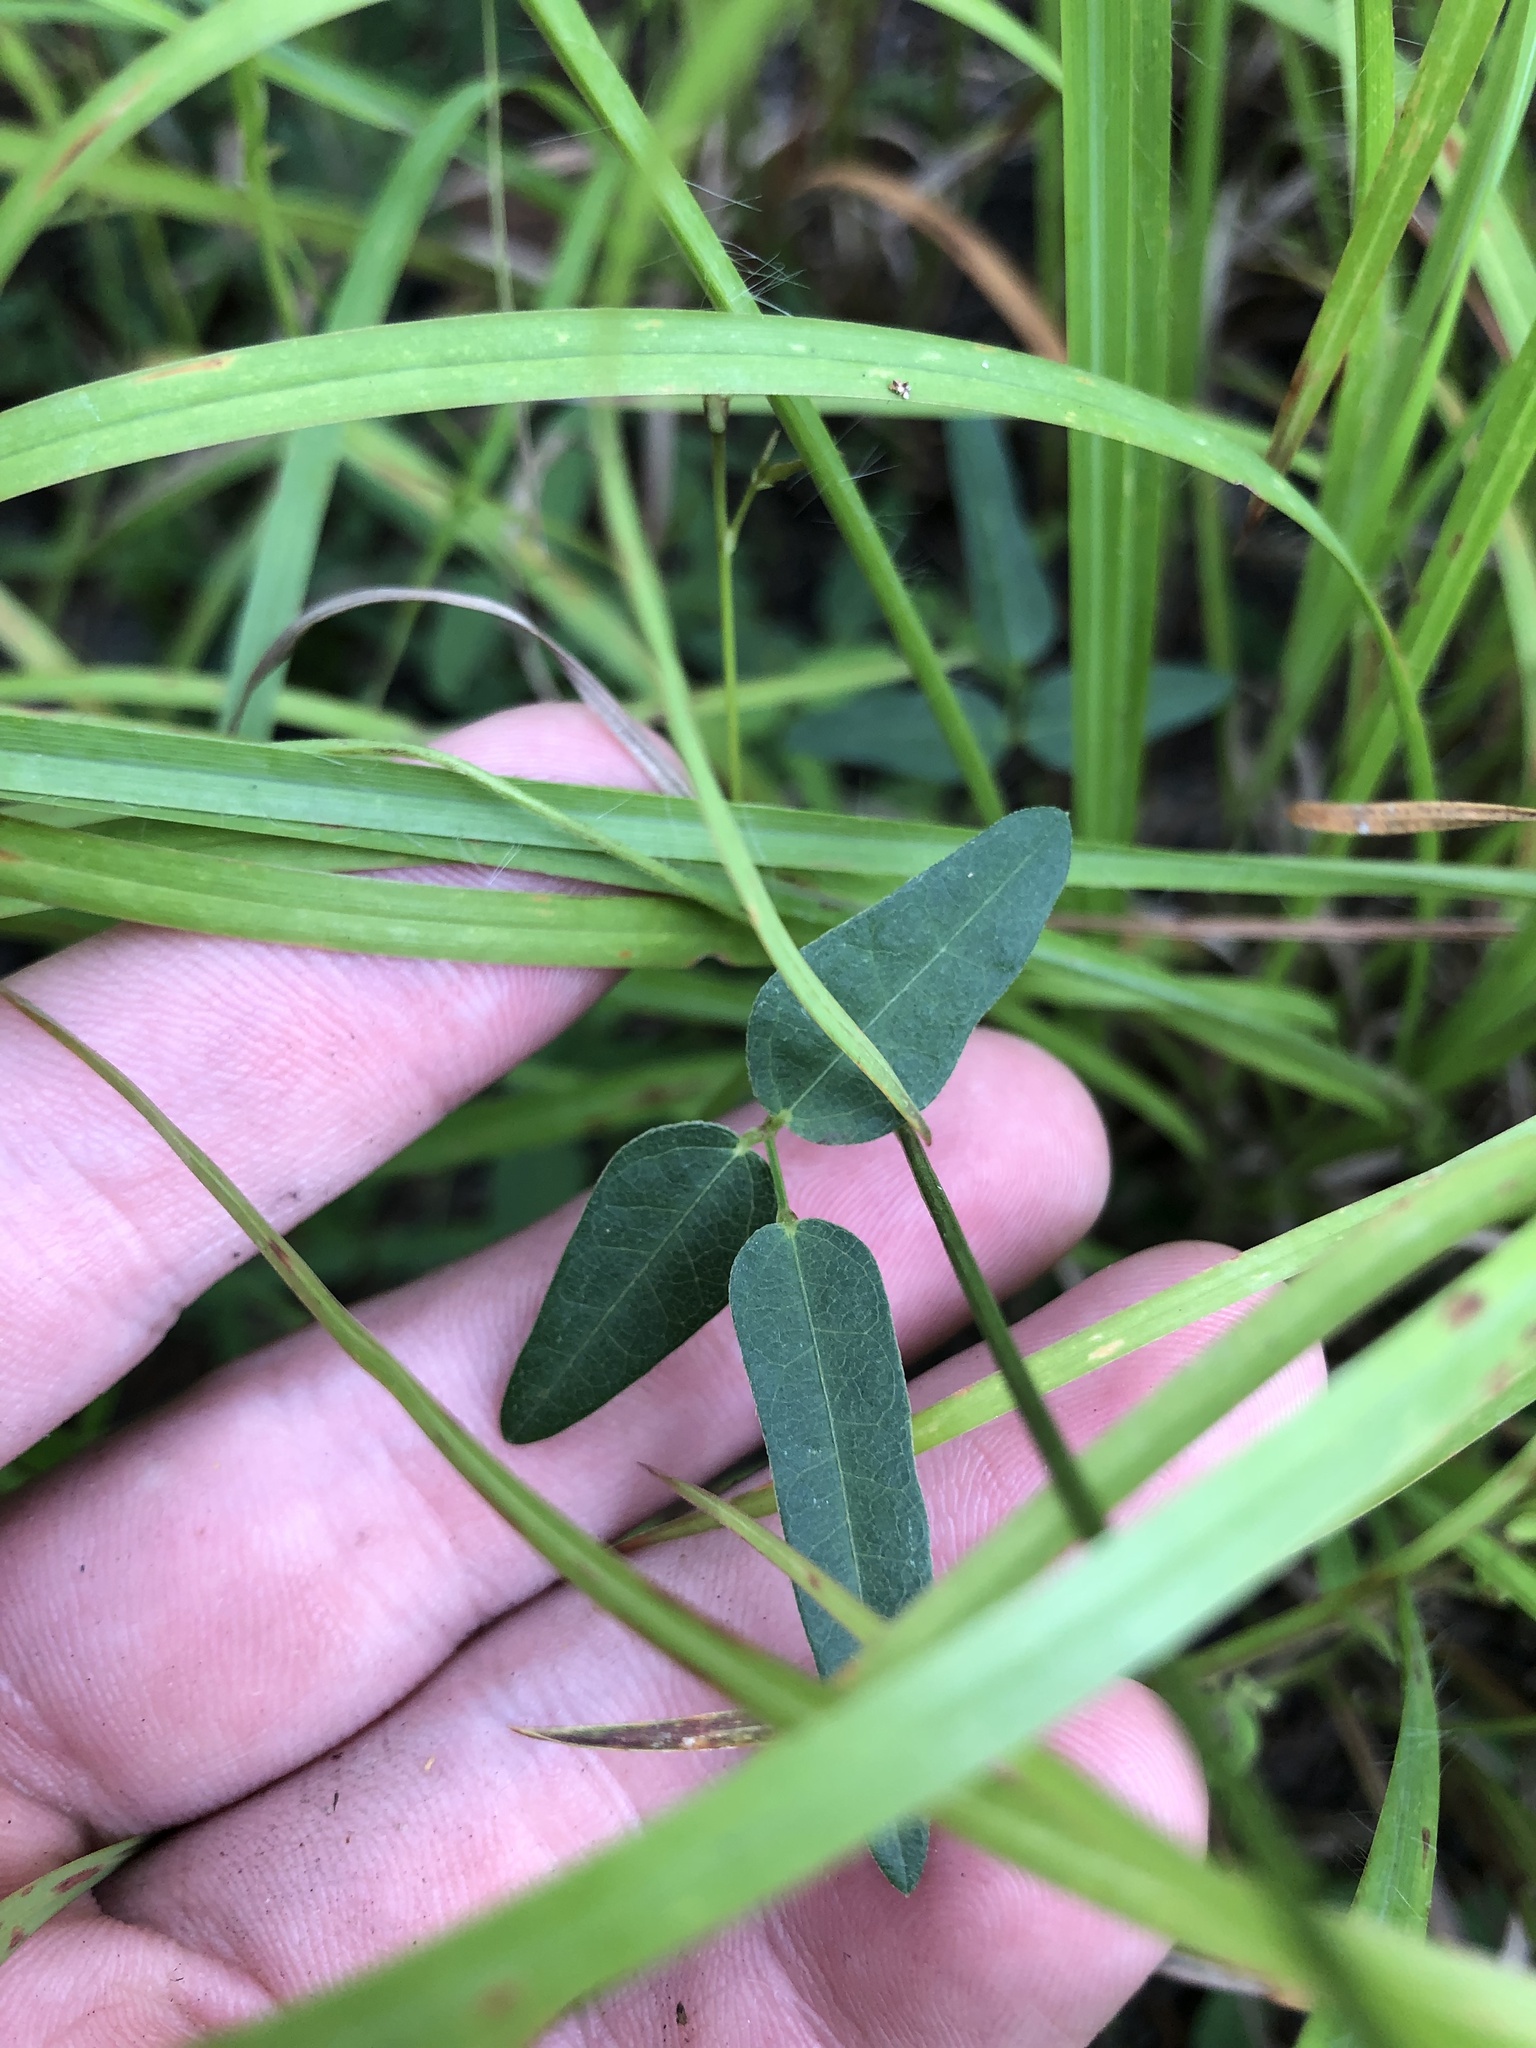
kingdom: Plantae
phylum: Tracheophyta
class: Magnoliopsida
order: Fabales
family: Fabaceae
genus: Strophostyles
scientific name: Strophostyles umbellata
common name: Perennial wild bean
